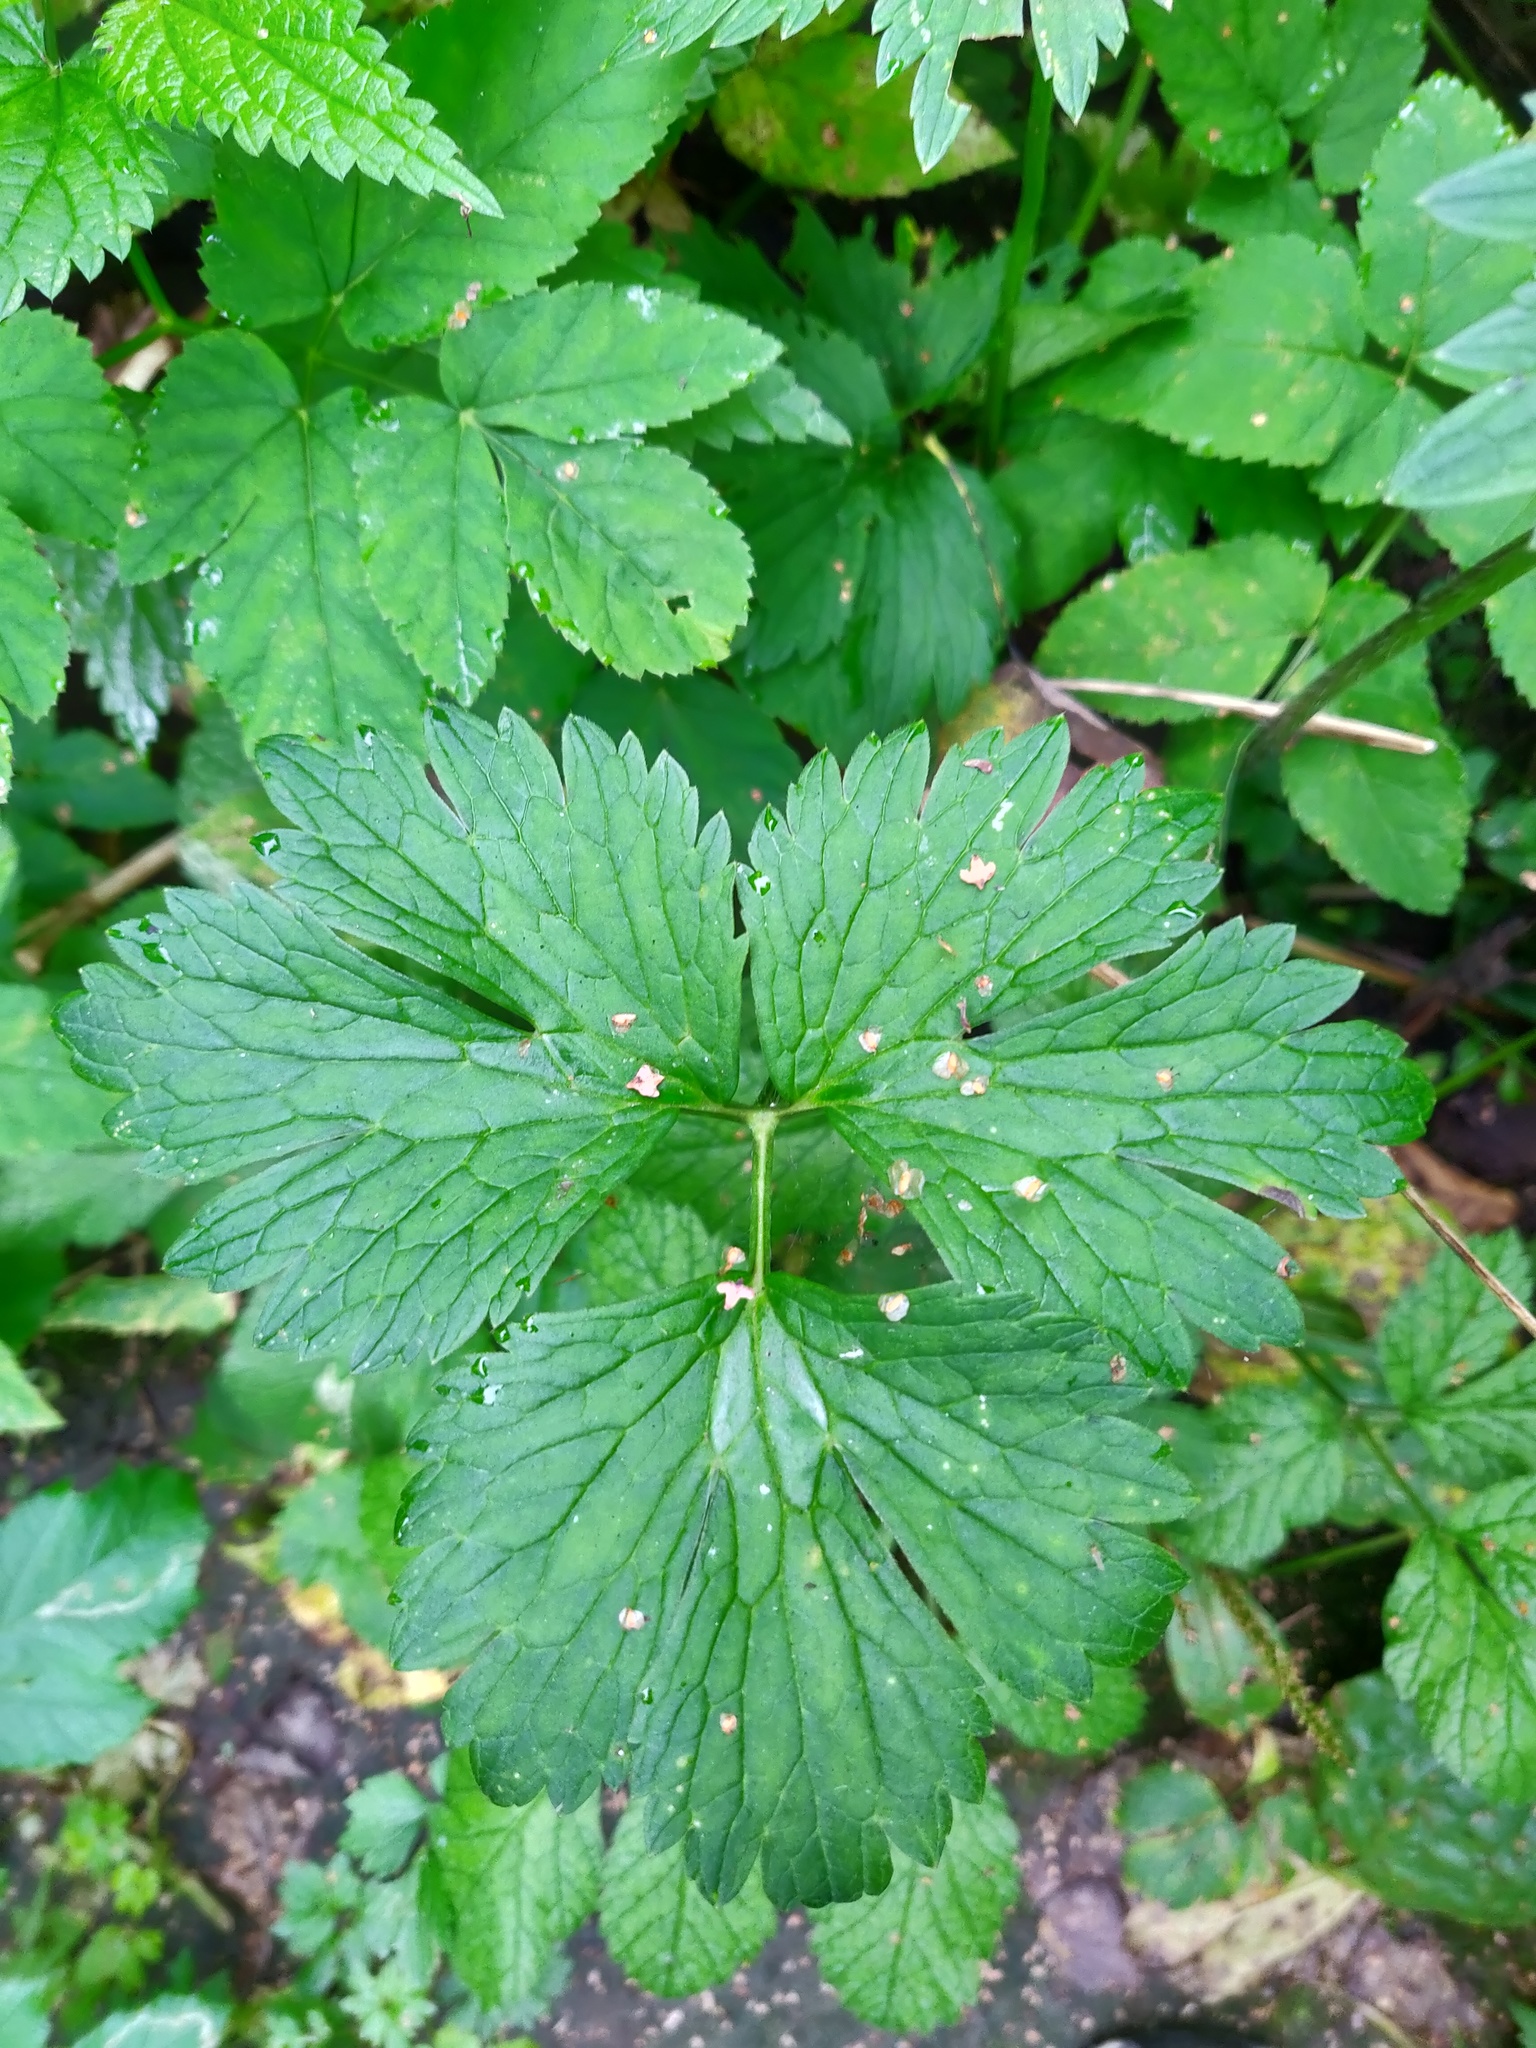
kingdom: Plantae
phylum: Tracheophyta
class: Magnoliopsida
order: Ranunculales
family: Ranunculaceae
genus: Ranunculus
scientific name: Ranunculus repens
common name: Creeping buttercup
